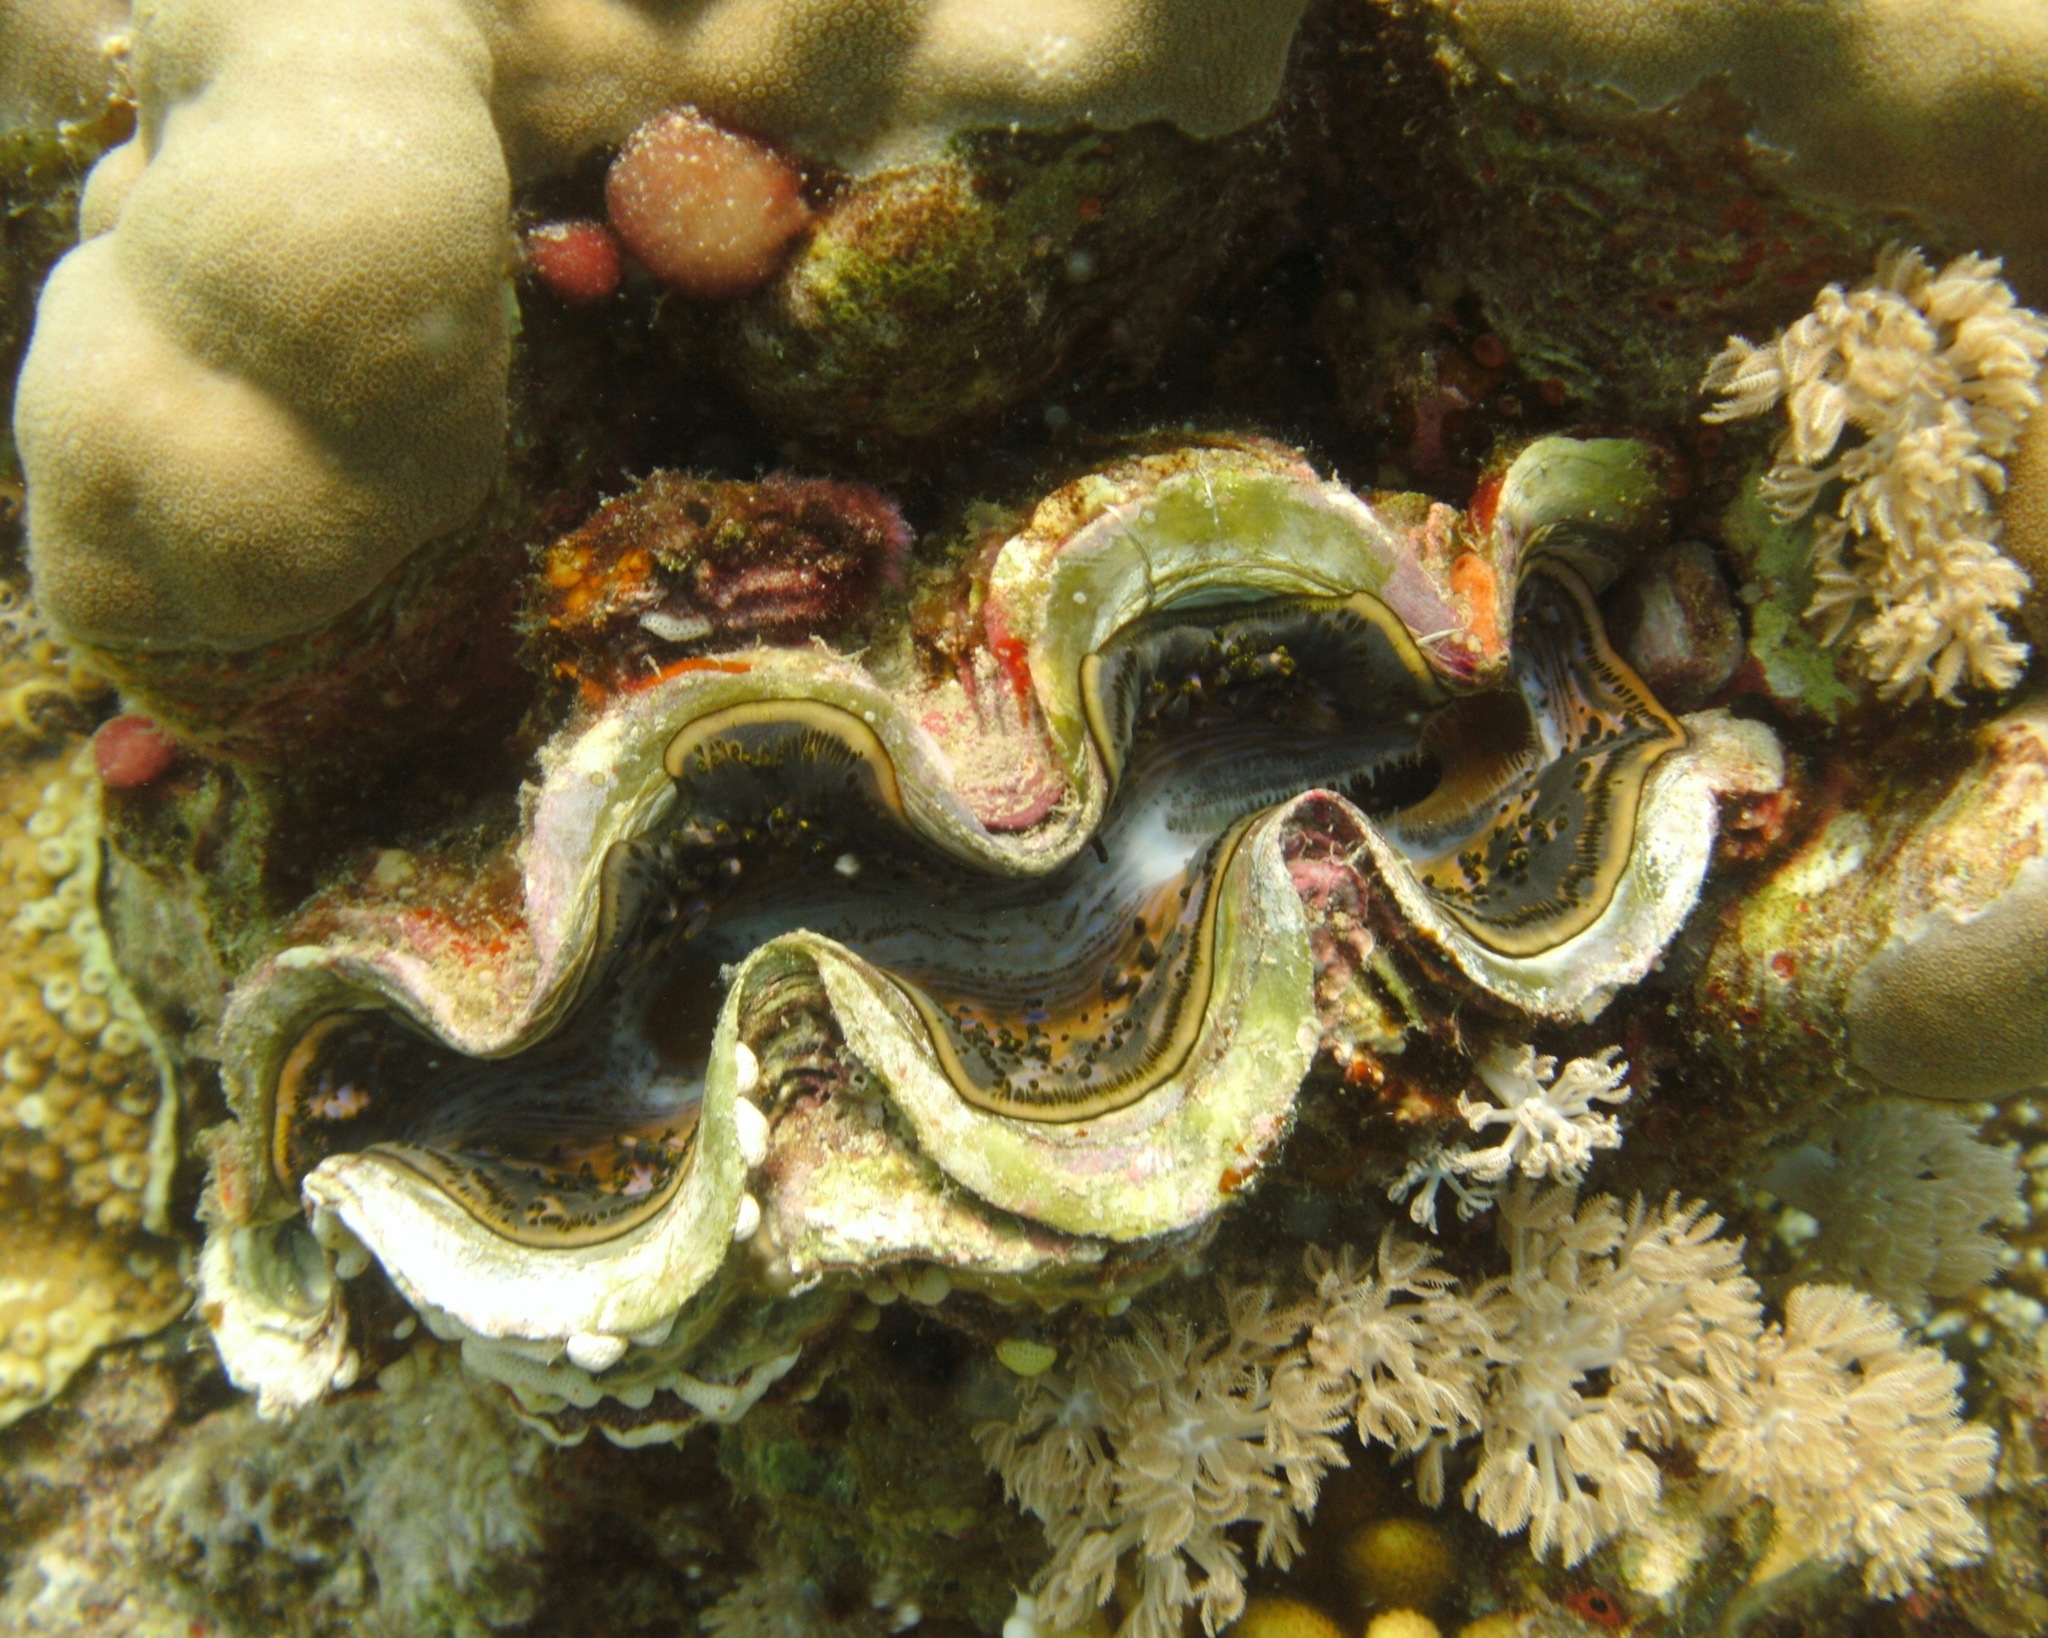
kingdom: Animalia
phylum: Mollusca
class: Bivalvia
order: Cardiida
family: Cardiidae
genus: Tridacna
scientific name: Tridacna maxima
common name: Small giant clam
